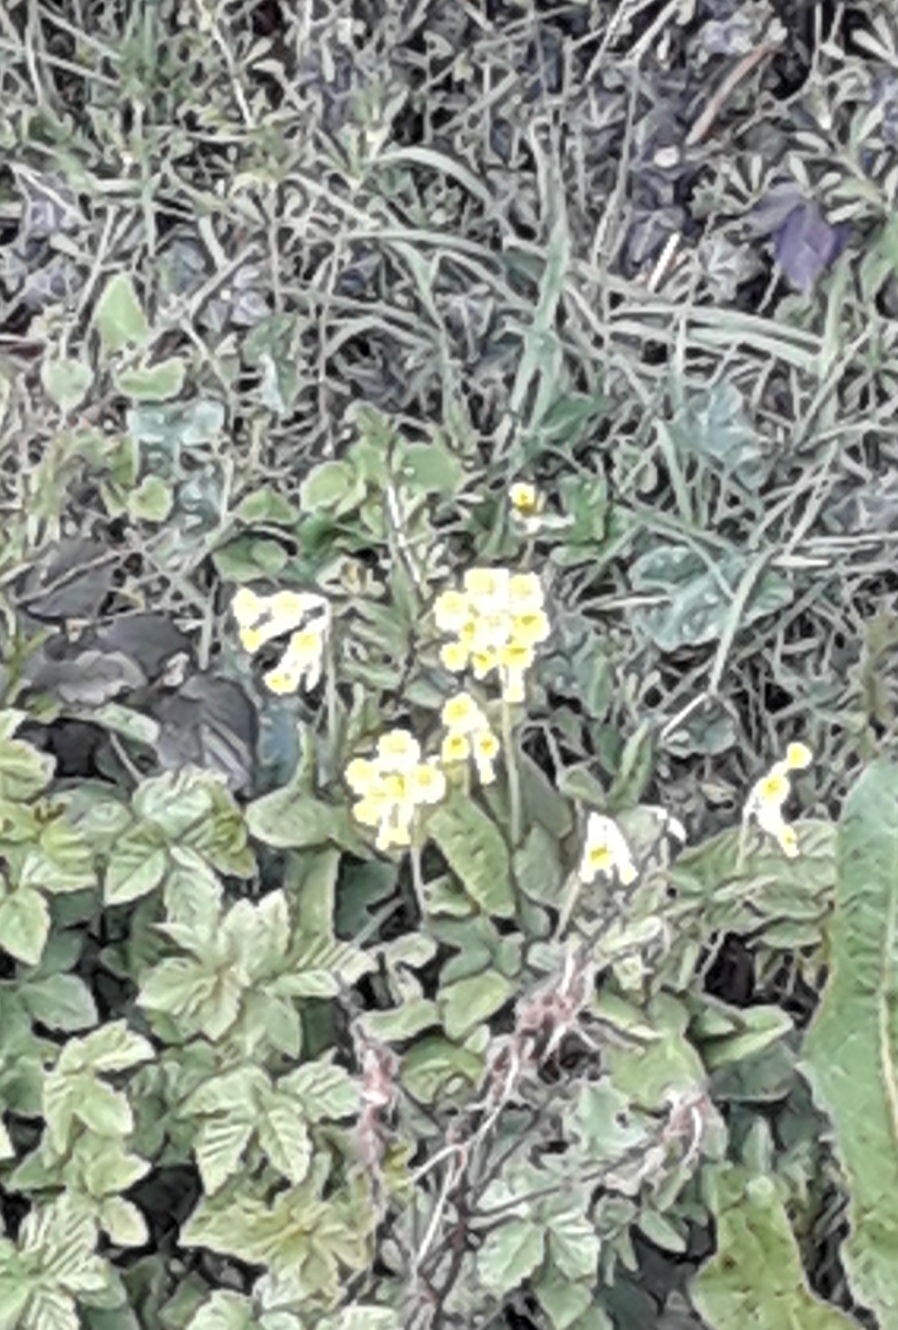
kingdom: Plantae
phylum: Tracheophyta
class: Magnoliopsida
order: Ericales
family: Primulaceae
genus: Primula
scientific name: Primula veris
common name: Cowslip
